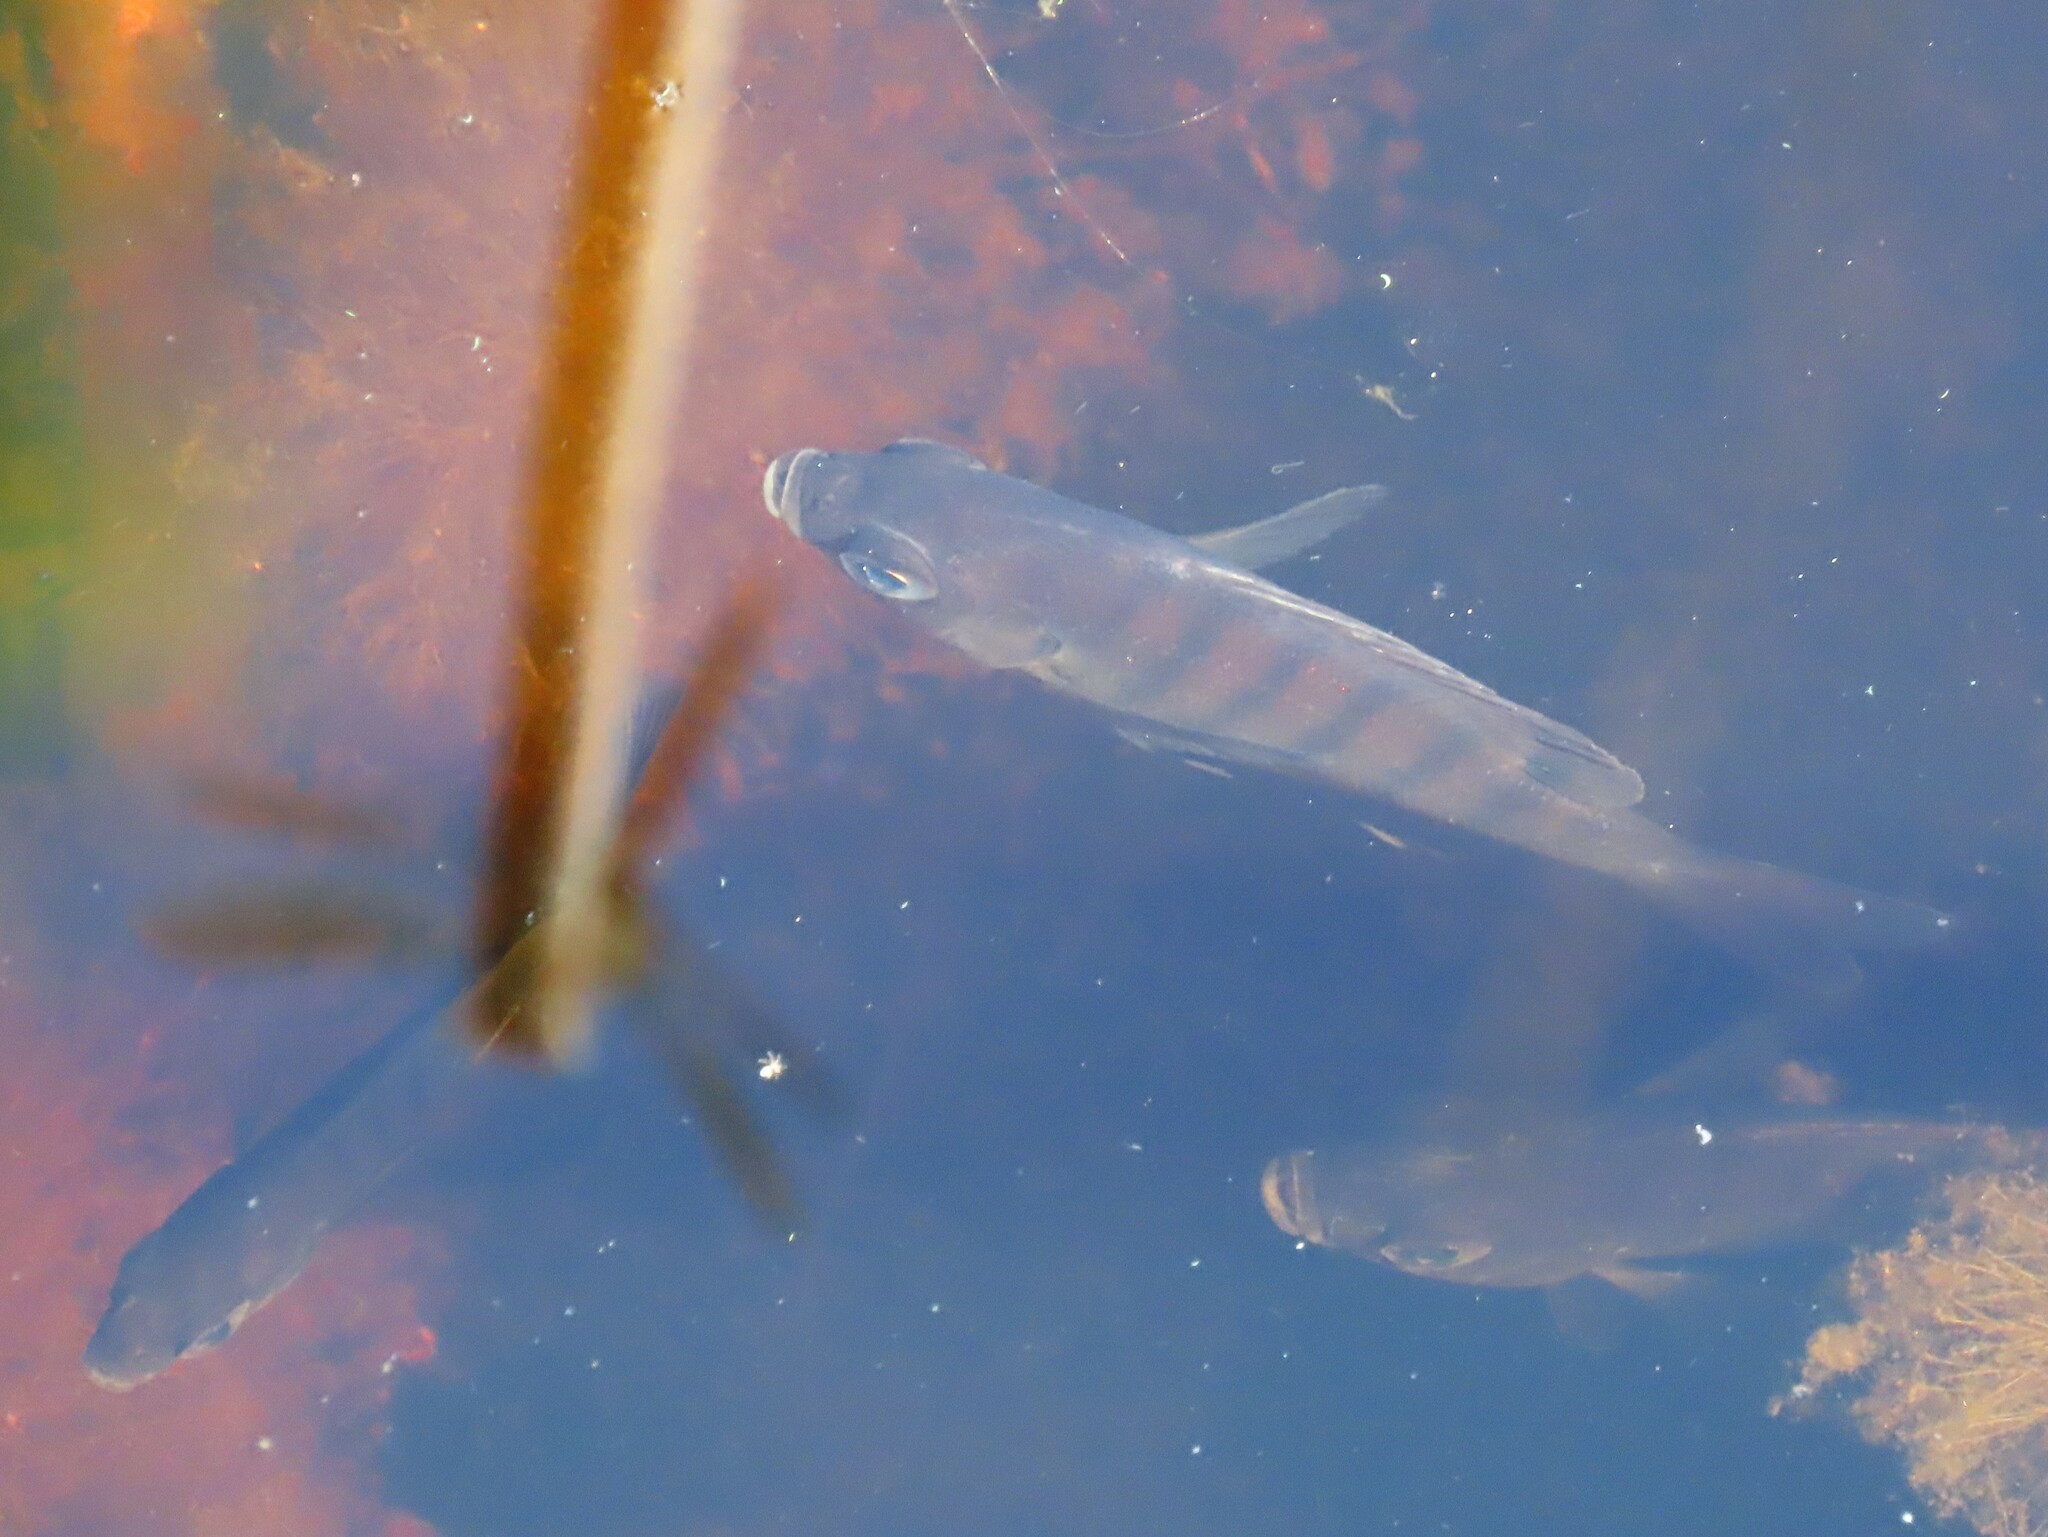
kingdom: Animalia
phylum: Chordata
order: Perciformes
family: Centrarchidae
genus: Lepomis
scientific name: Lepomis macrochirus
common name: Bluegill
